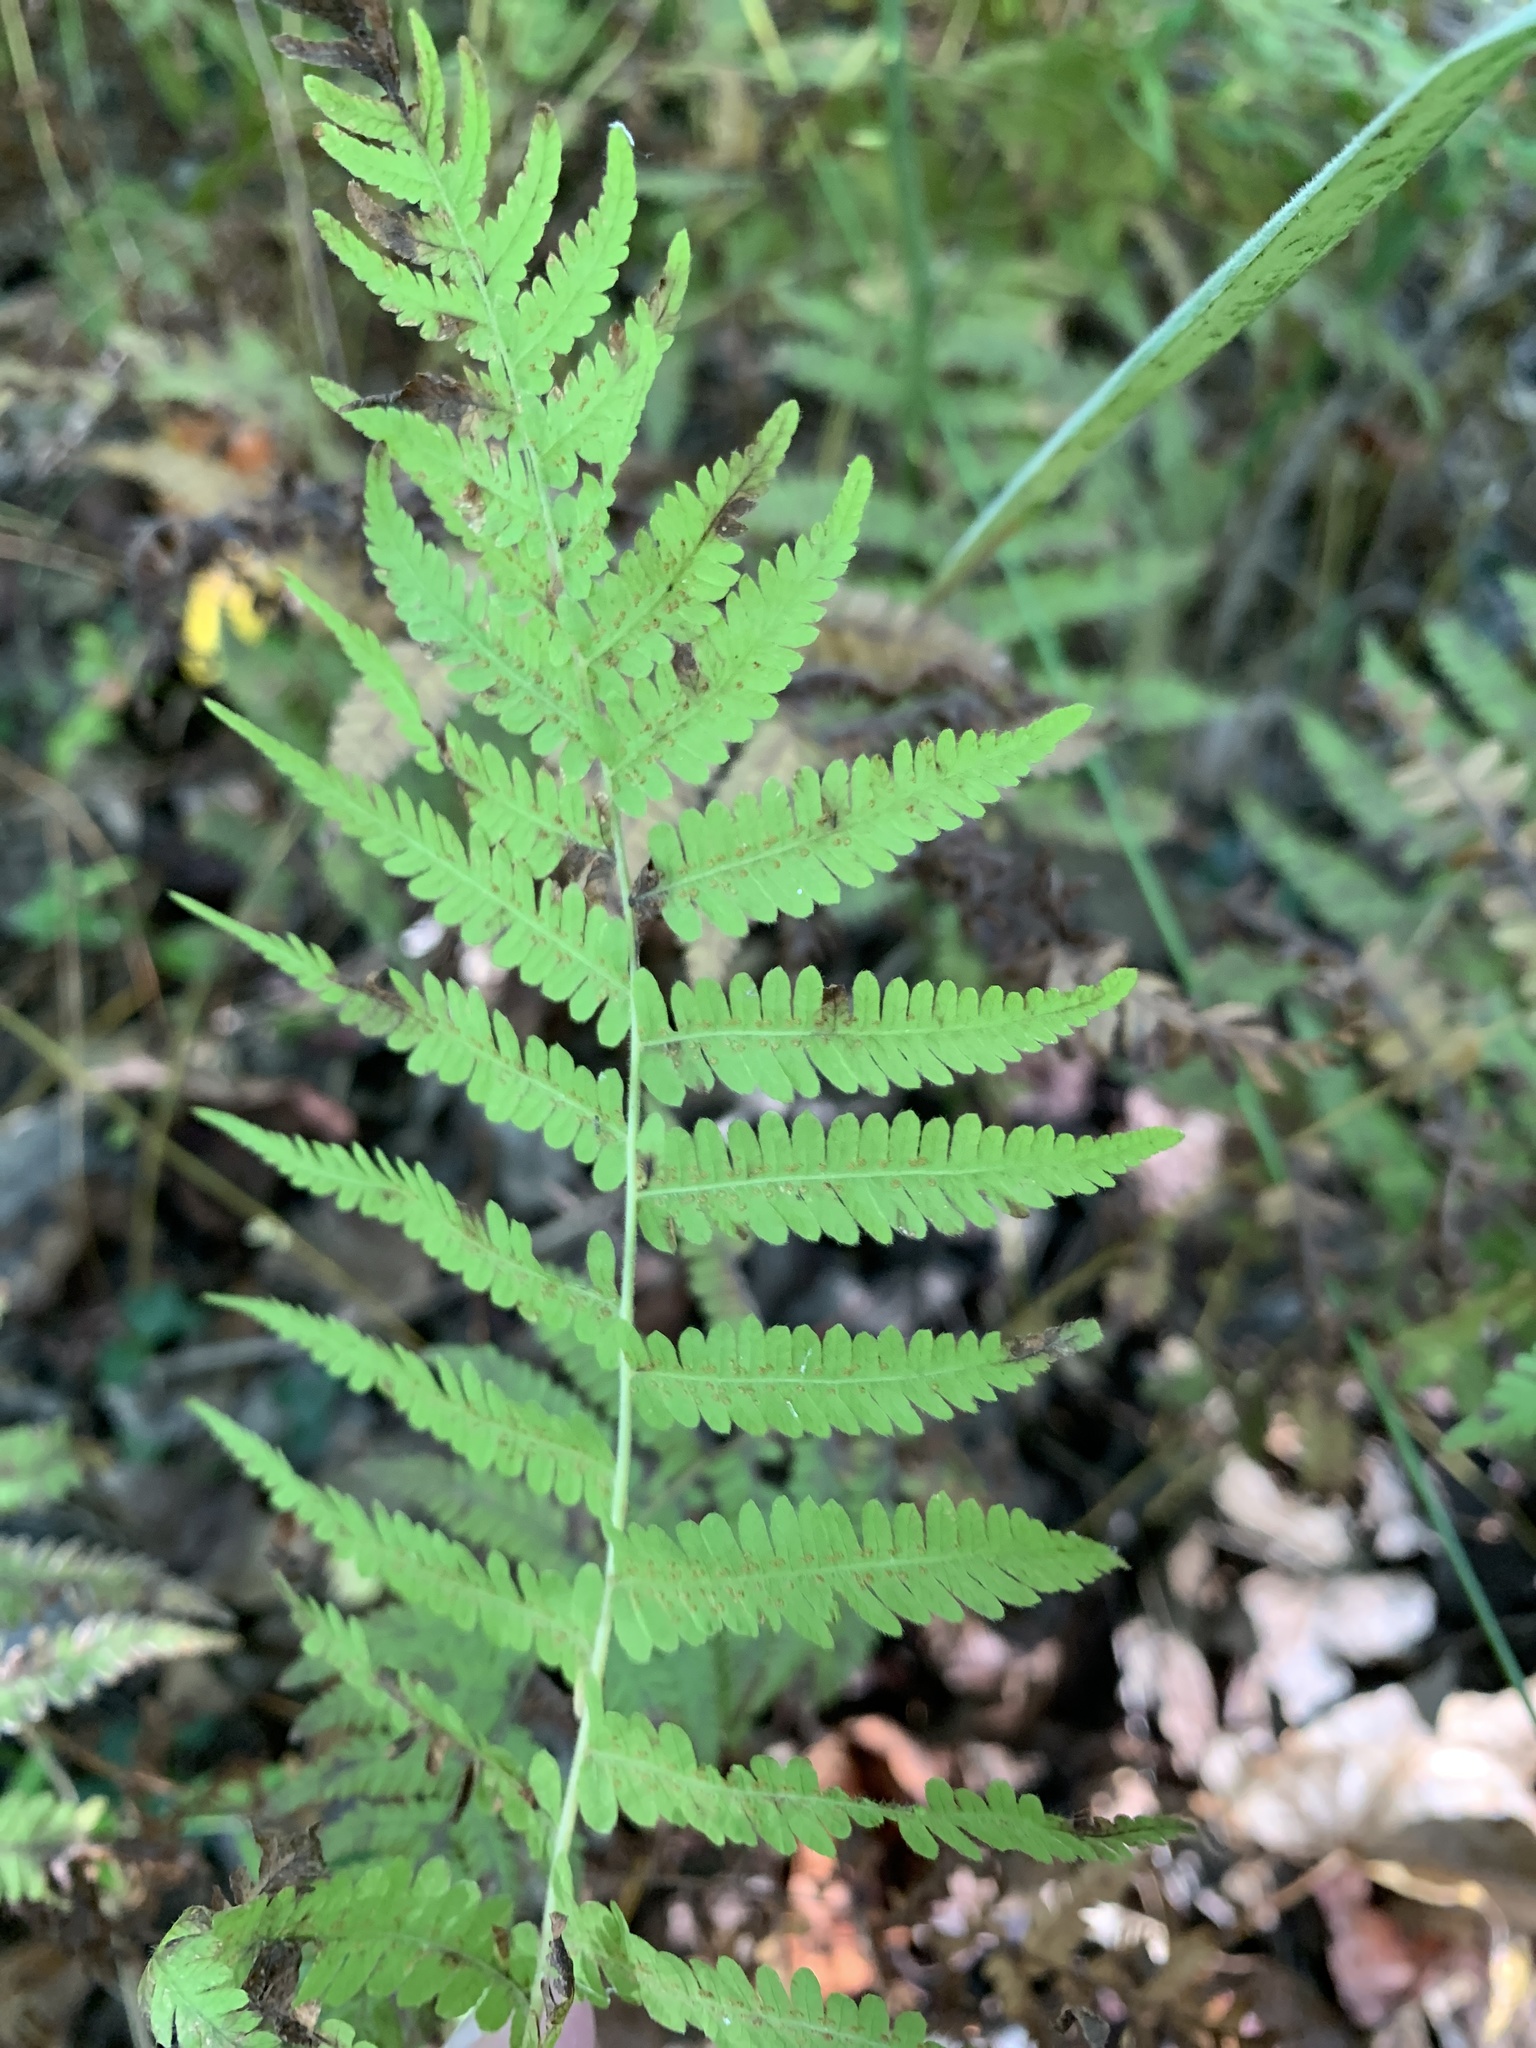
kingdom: Plantae
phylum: Tracheophyta
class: Polypodiopsida
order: Polypodiales
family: Thelypteridaceae
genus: Amauropelta
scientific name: Amauropelta noveboracensis
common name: New york fern
